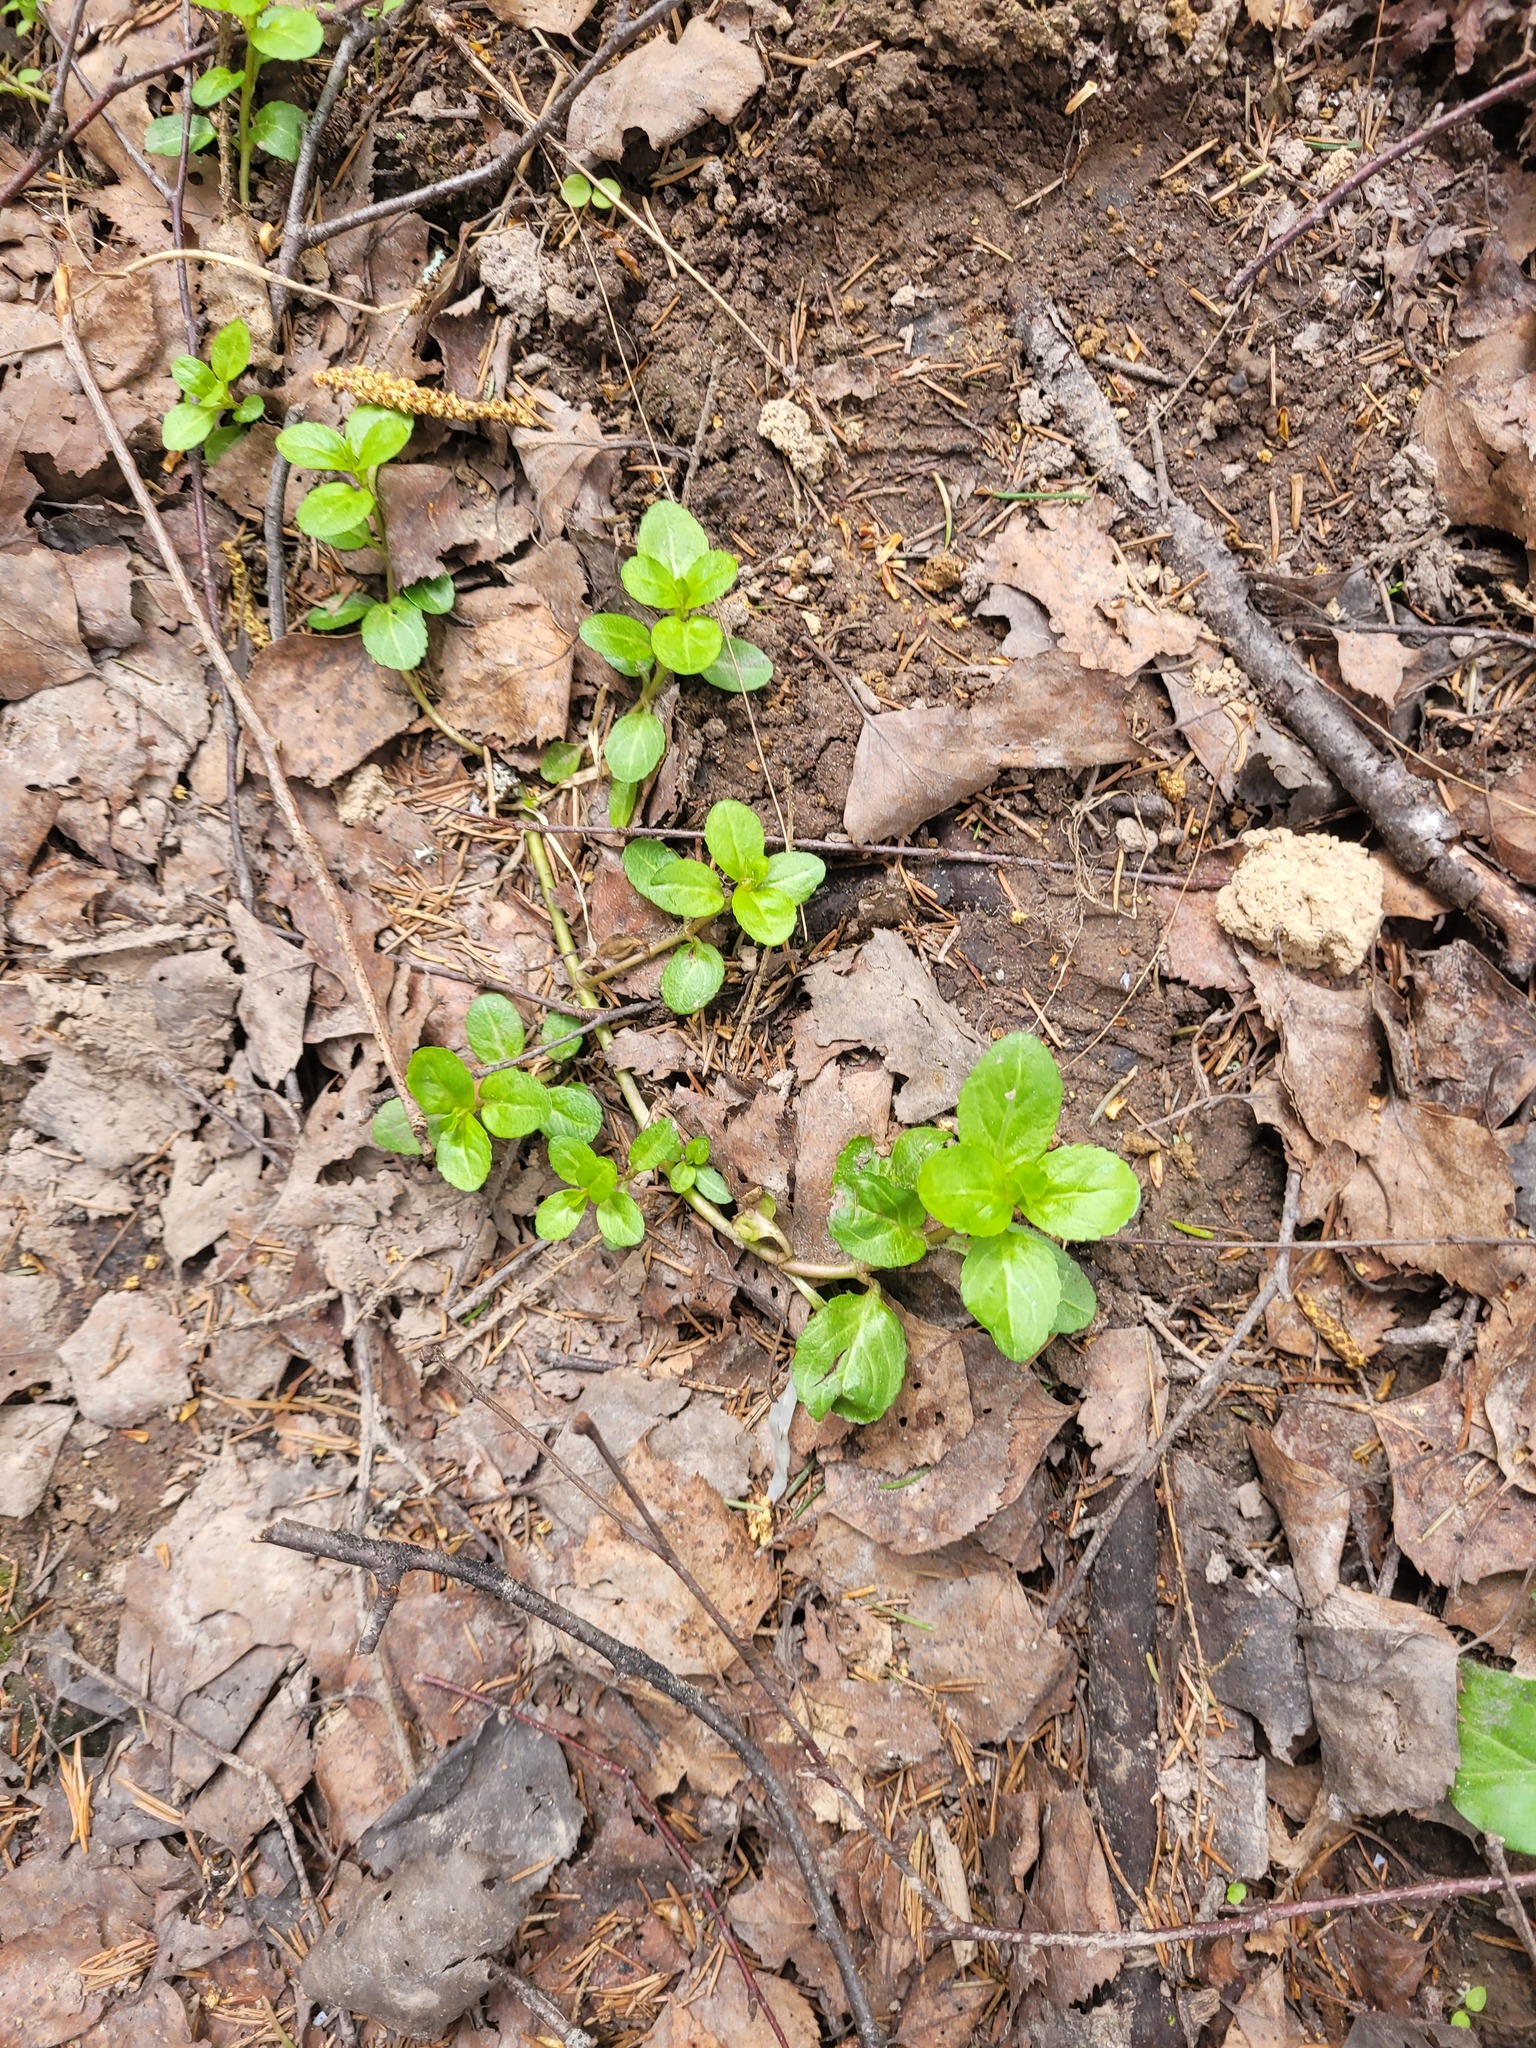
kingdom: Plantae
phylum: Tracheophyta
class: Magnoliopsida
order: Lamiales
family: Plantaginaceae
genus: Veronica
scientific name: Veronica beccabunga
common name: Brooklime
